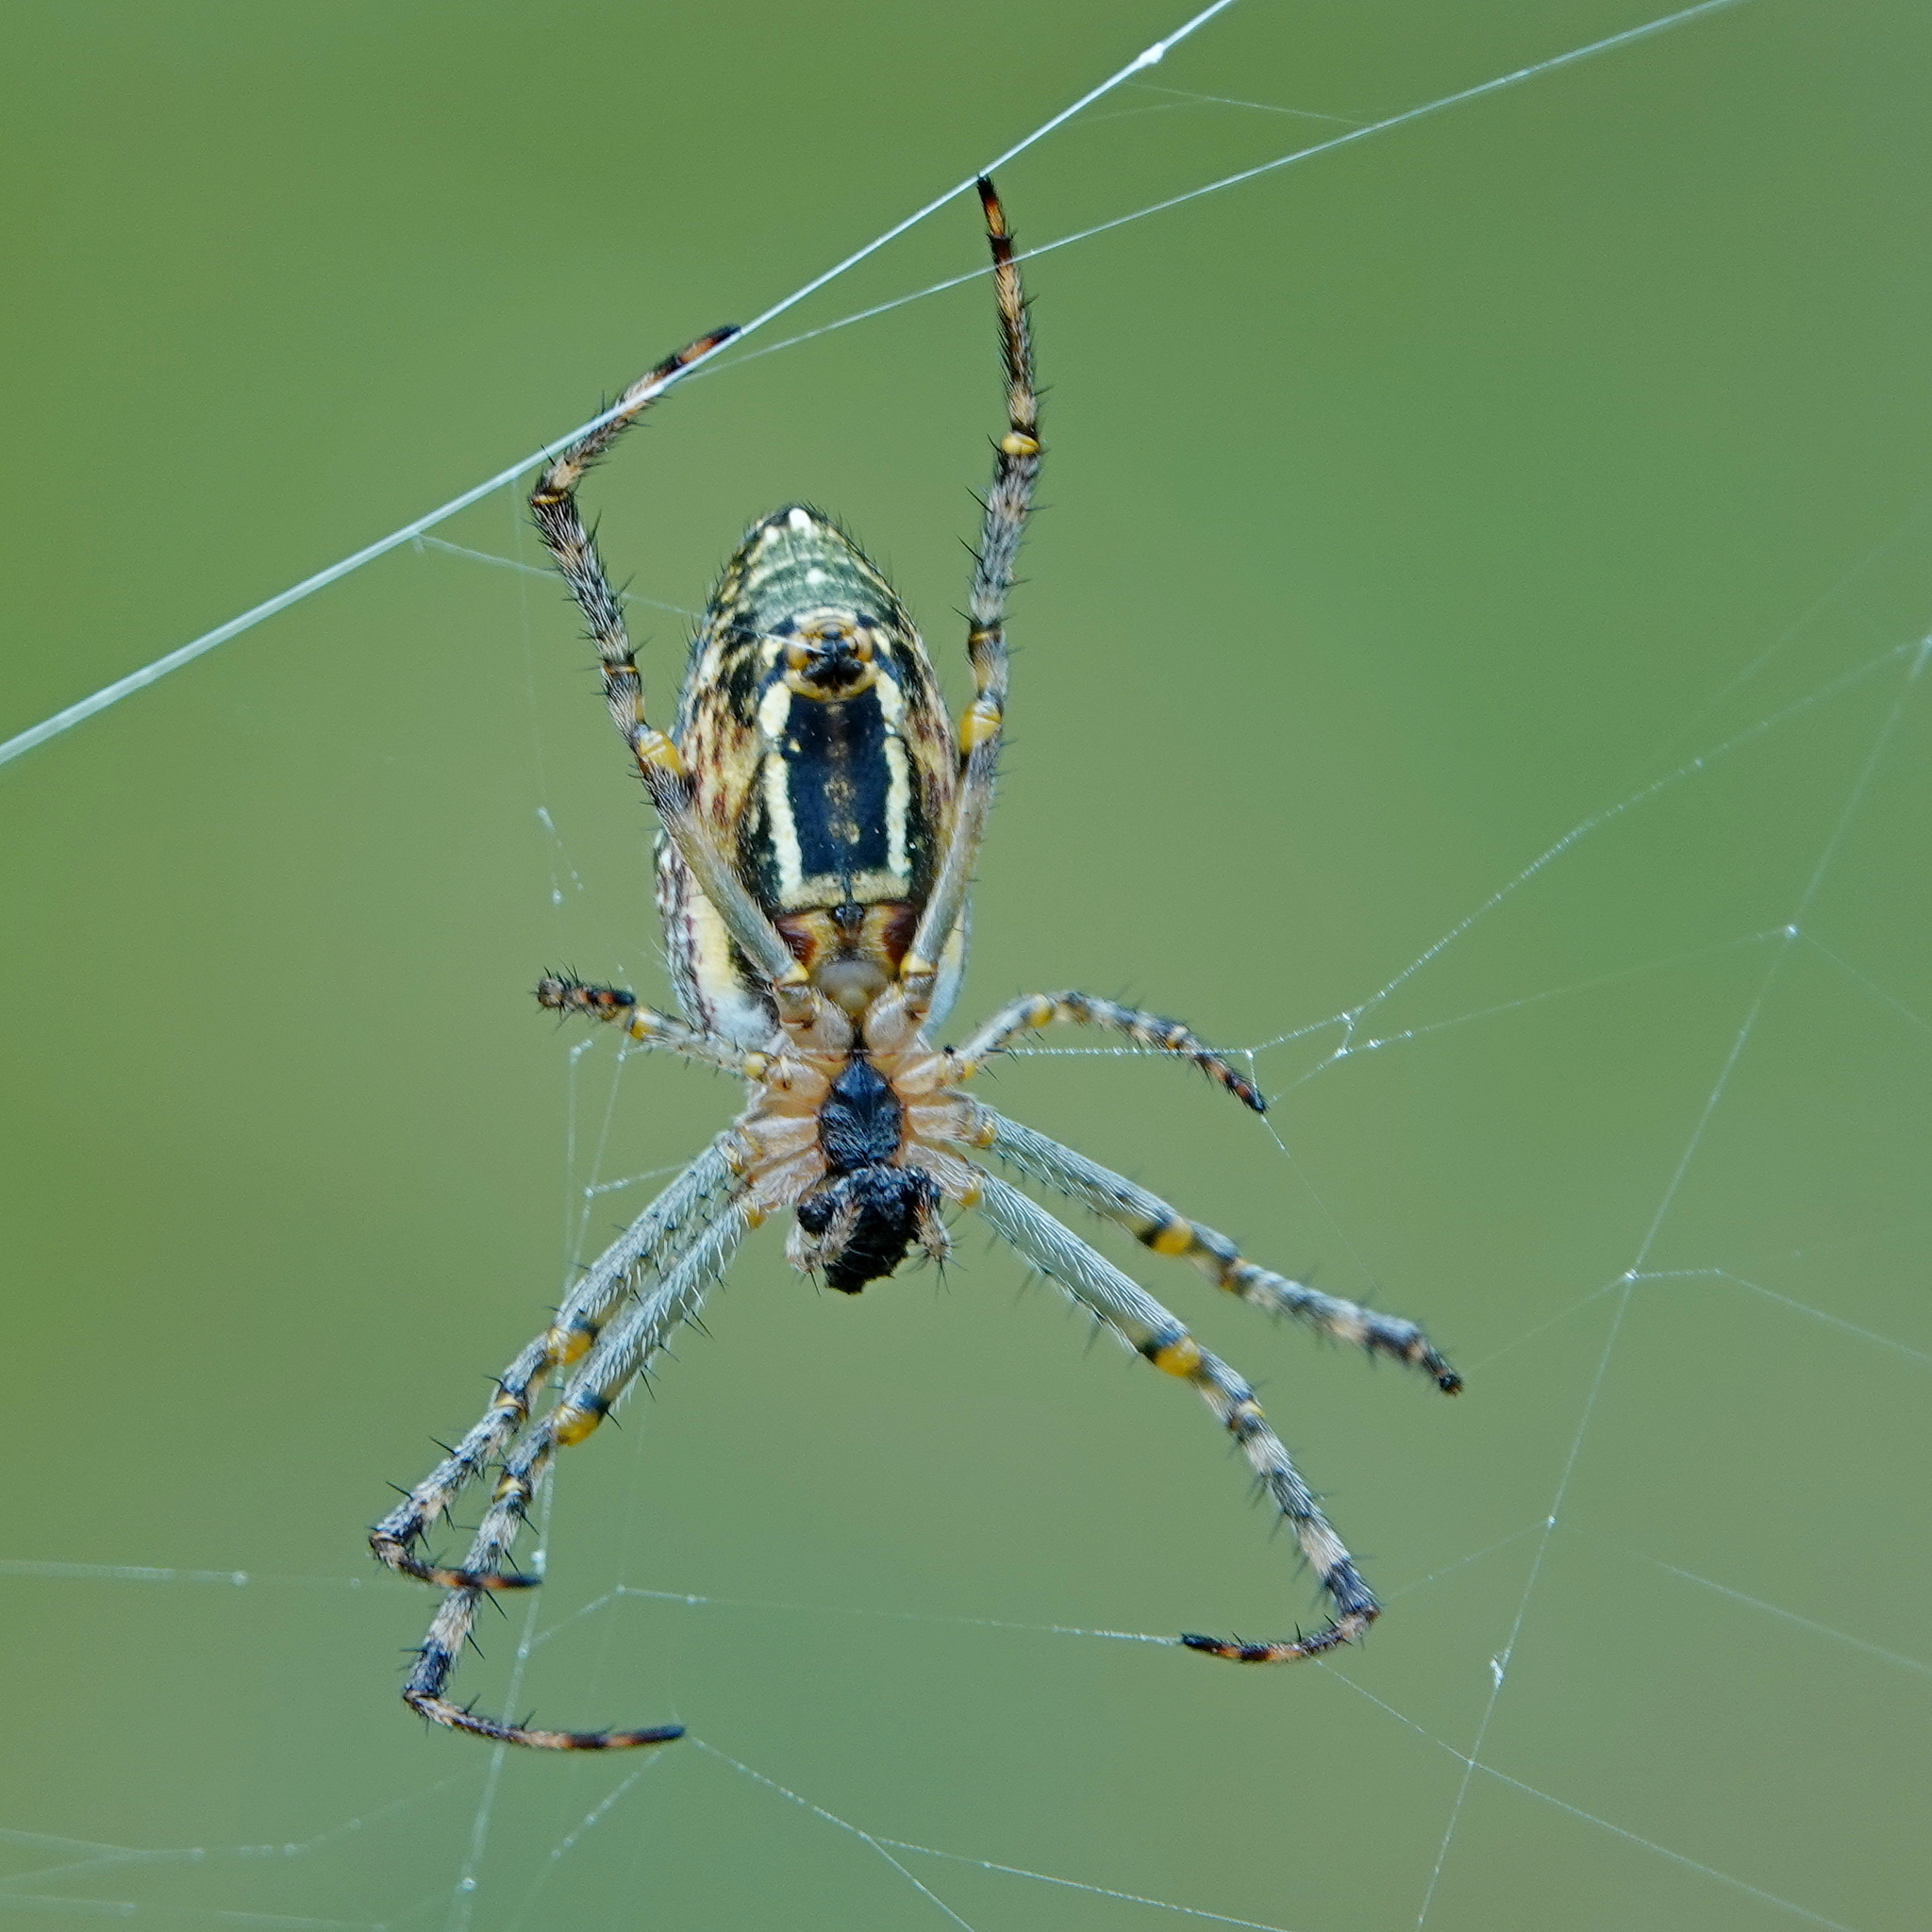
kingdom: Animalia
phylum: Arthropoda
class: Arachnida
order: Araneae
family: Araneidae
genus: Plebs
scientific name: Plebs bradleyi
